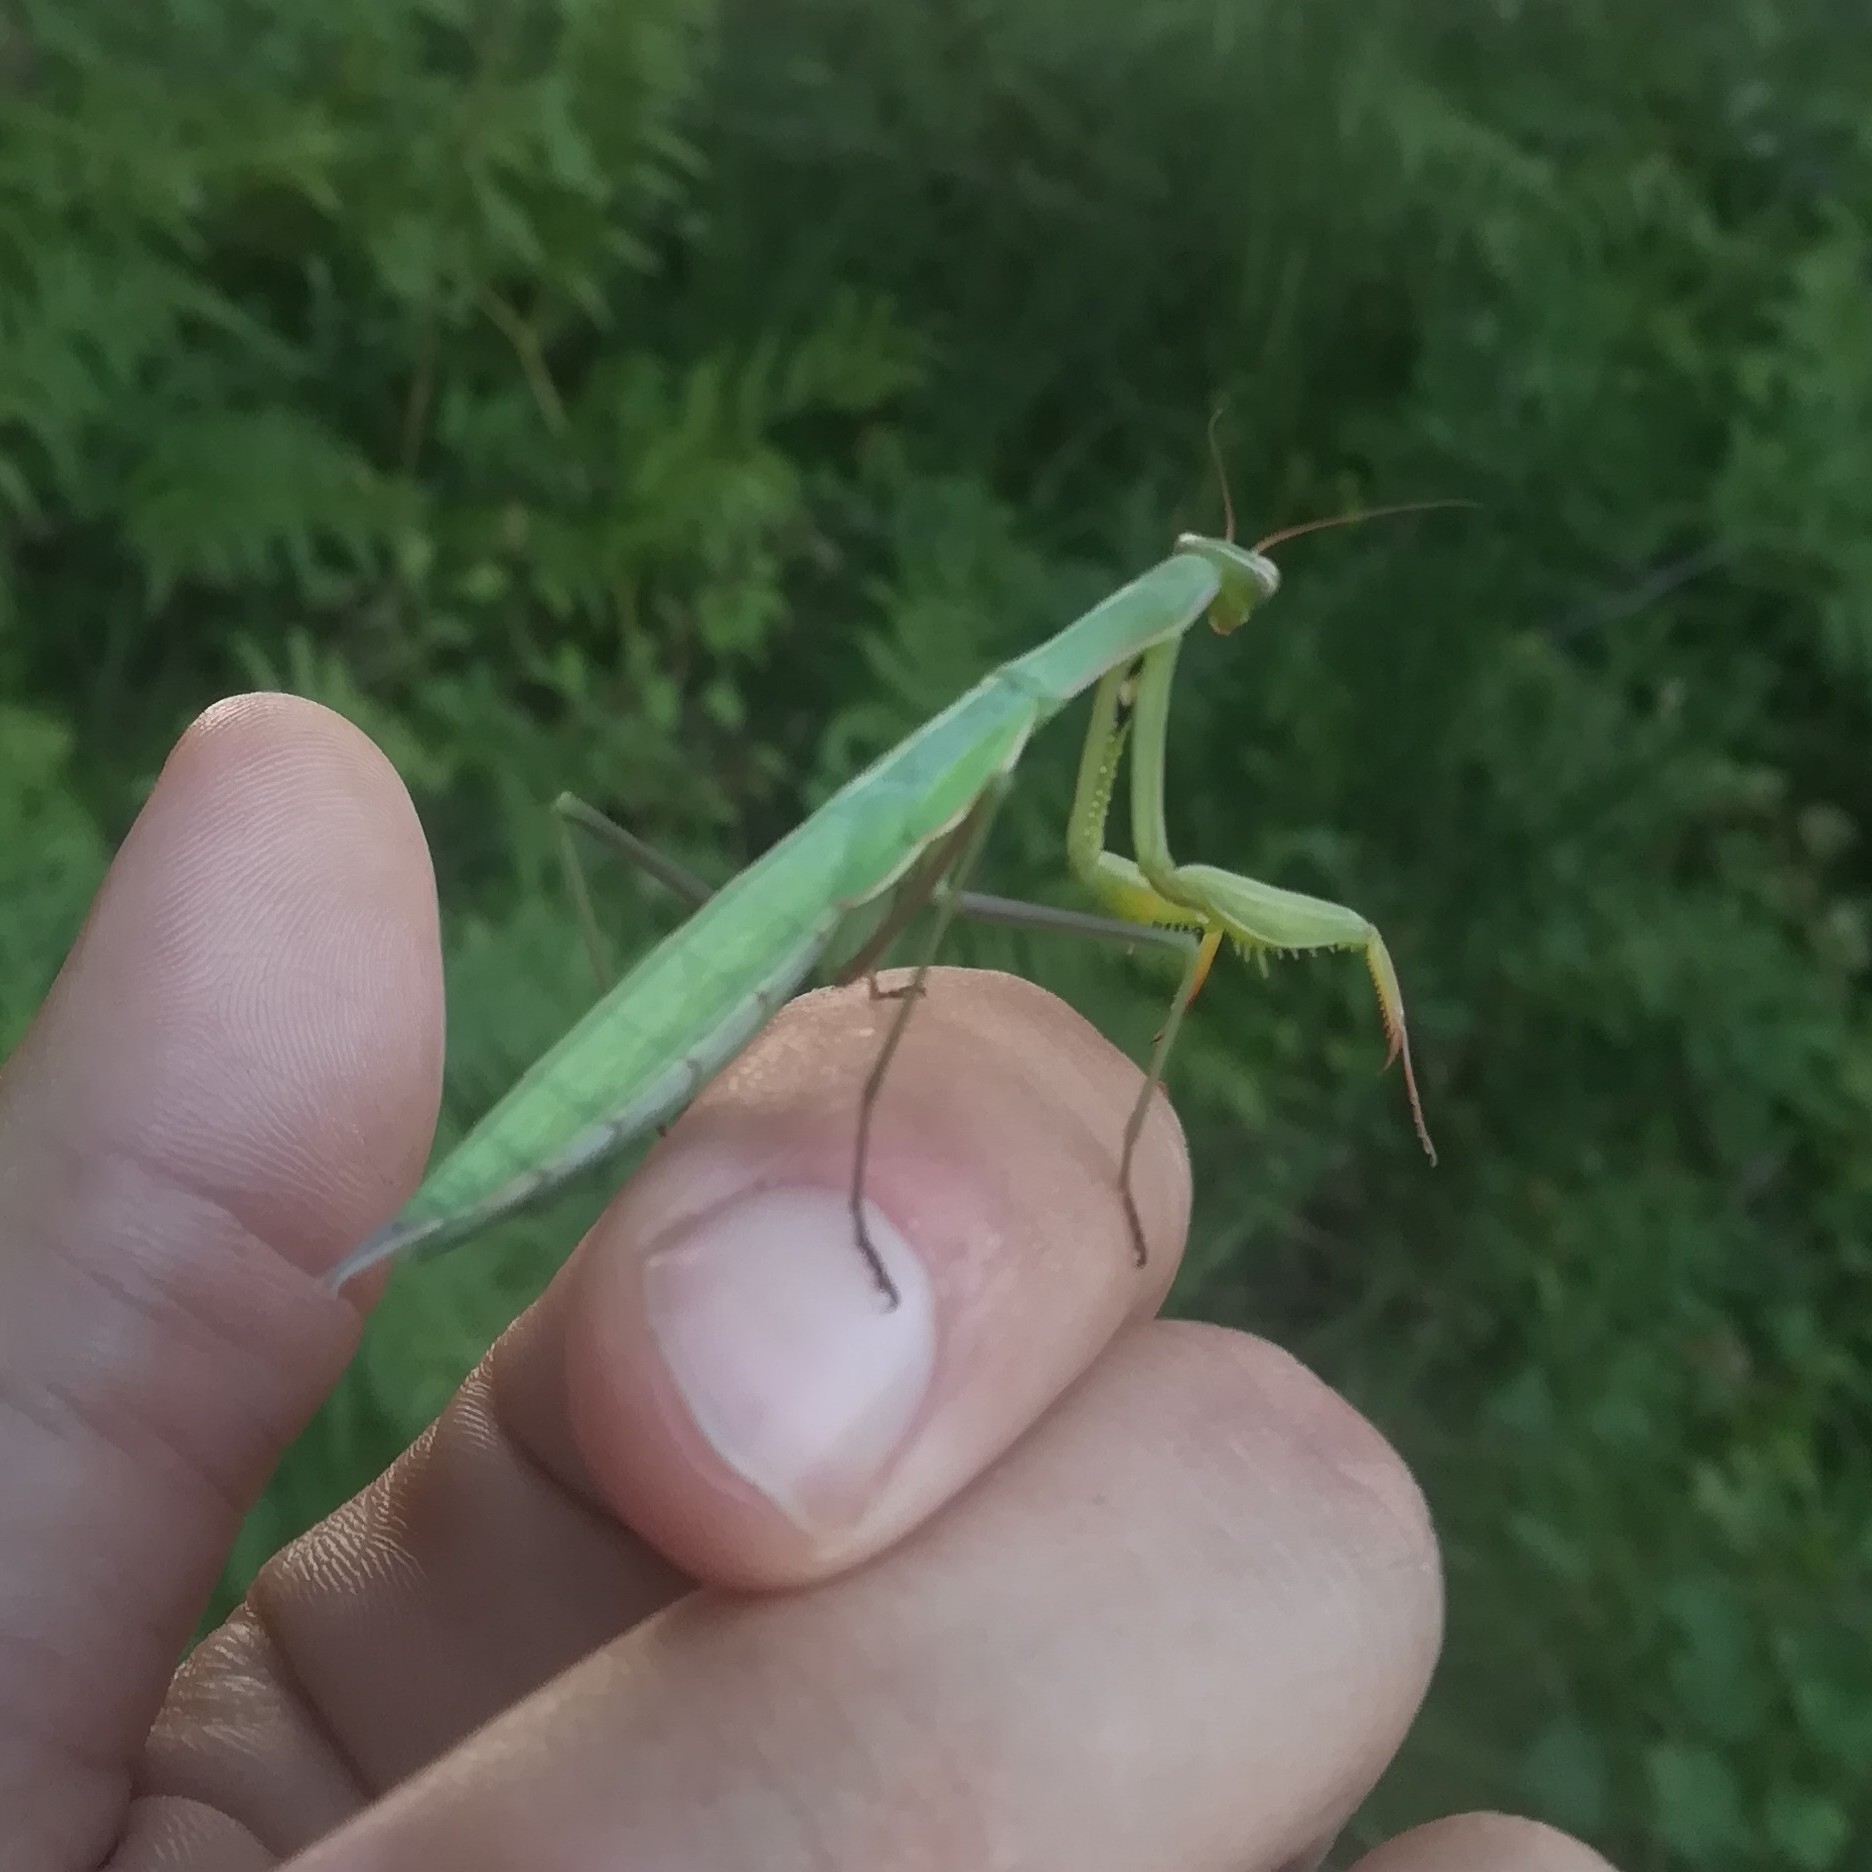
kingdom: Animalia
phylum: Arthropoda
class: Insecta
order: Mantodea
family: Mantidae
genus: Mantis
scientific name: Mantis religiosa
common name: Praying mantis
